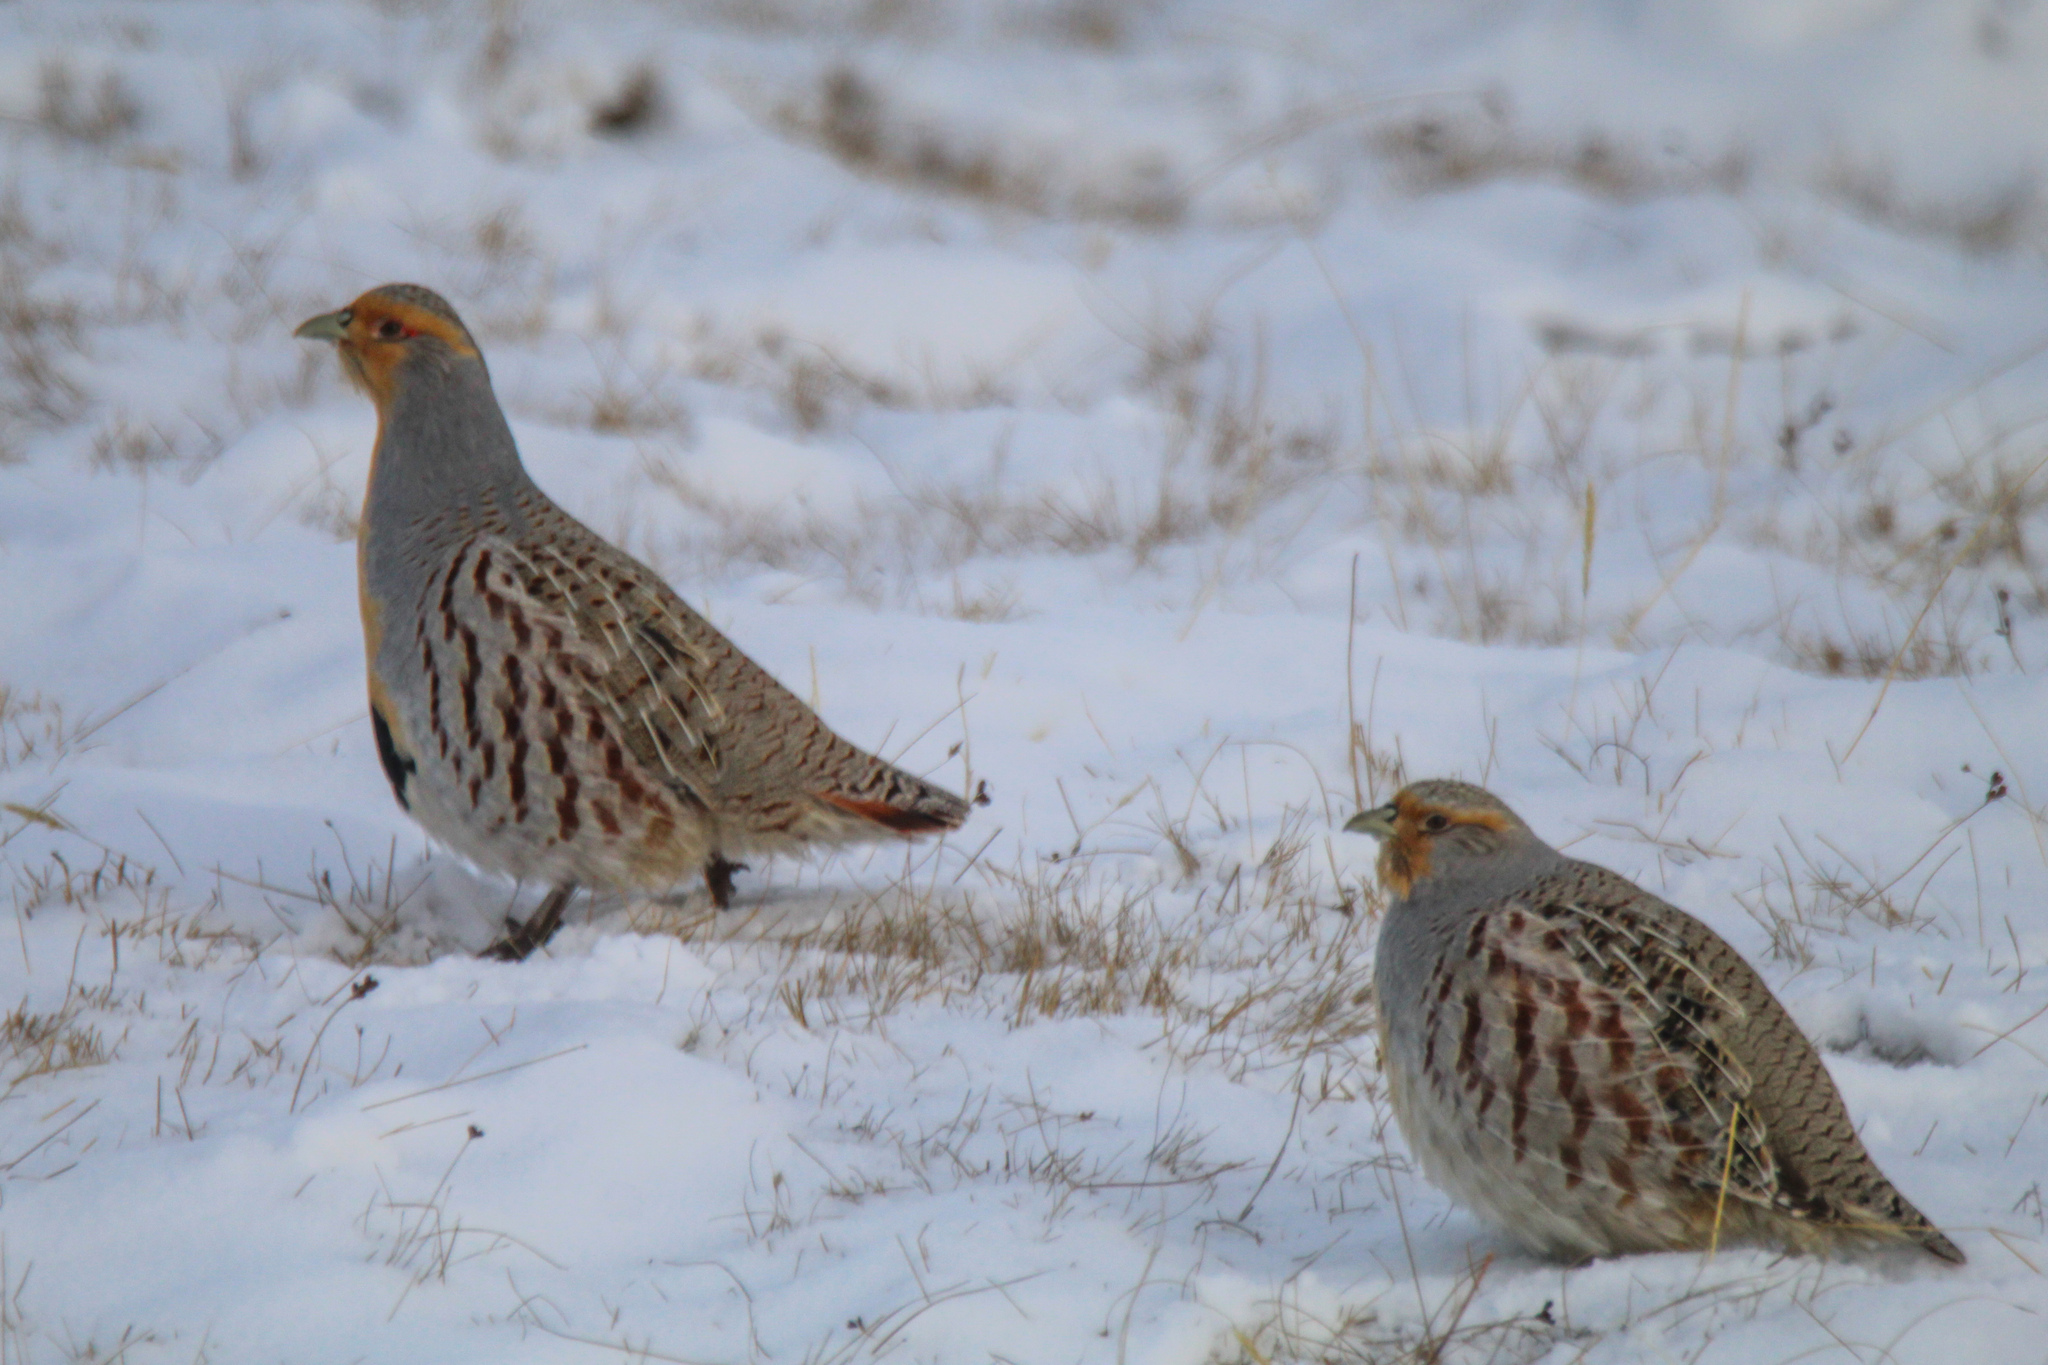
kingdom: Animalia
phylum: Chordata
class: Aves
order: Galliformes
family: Phasianidae
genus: Perdix
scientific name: Perdix dauurica
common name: Daurian partridge
